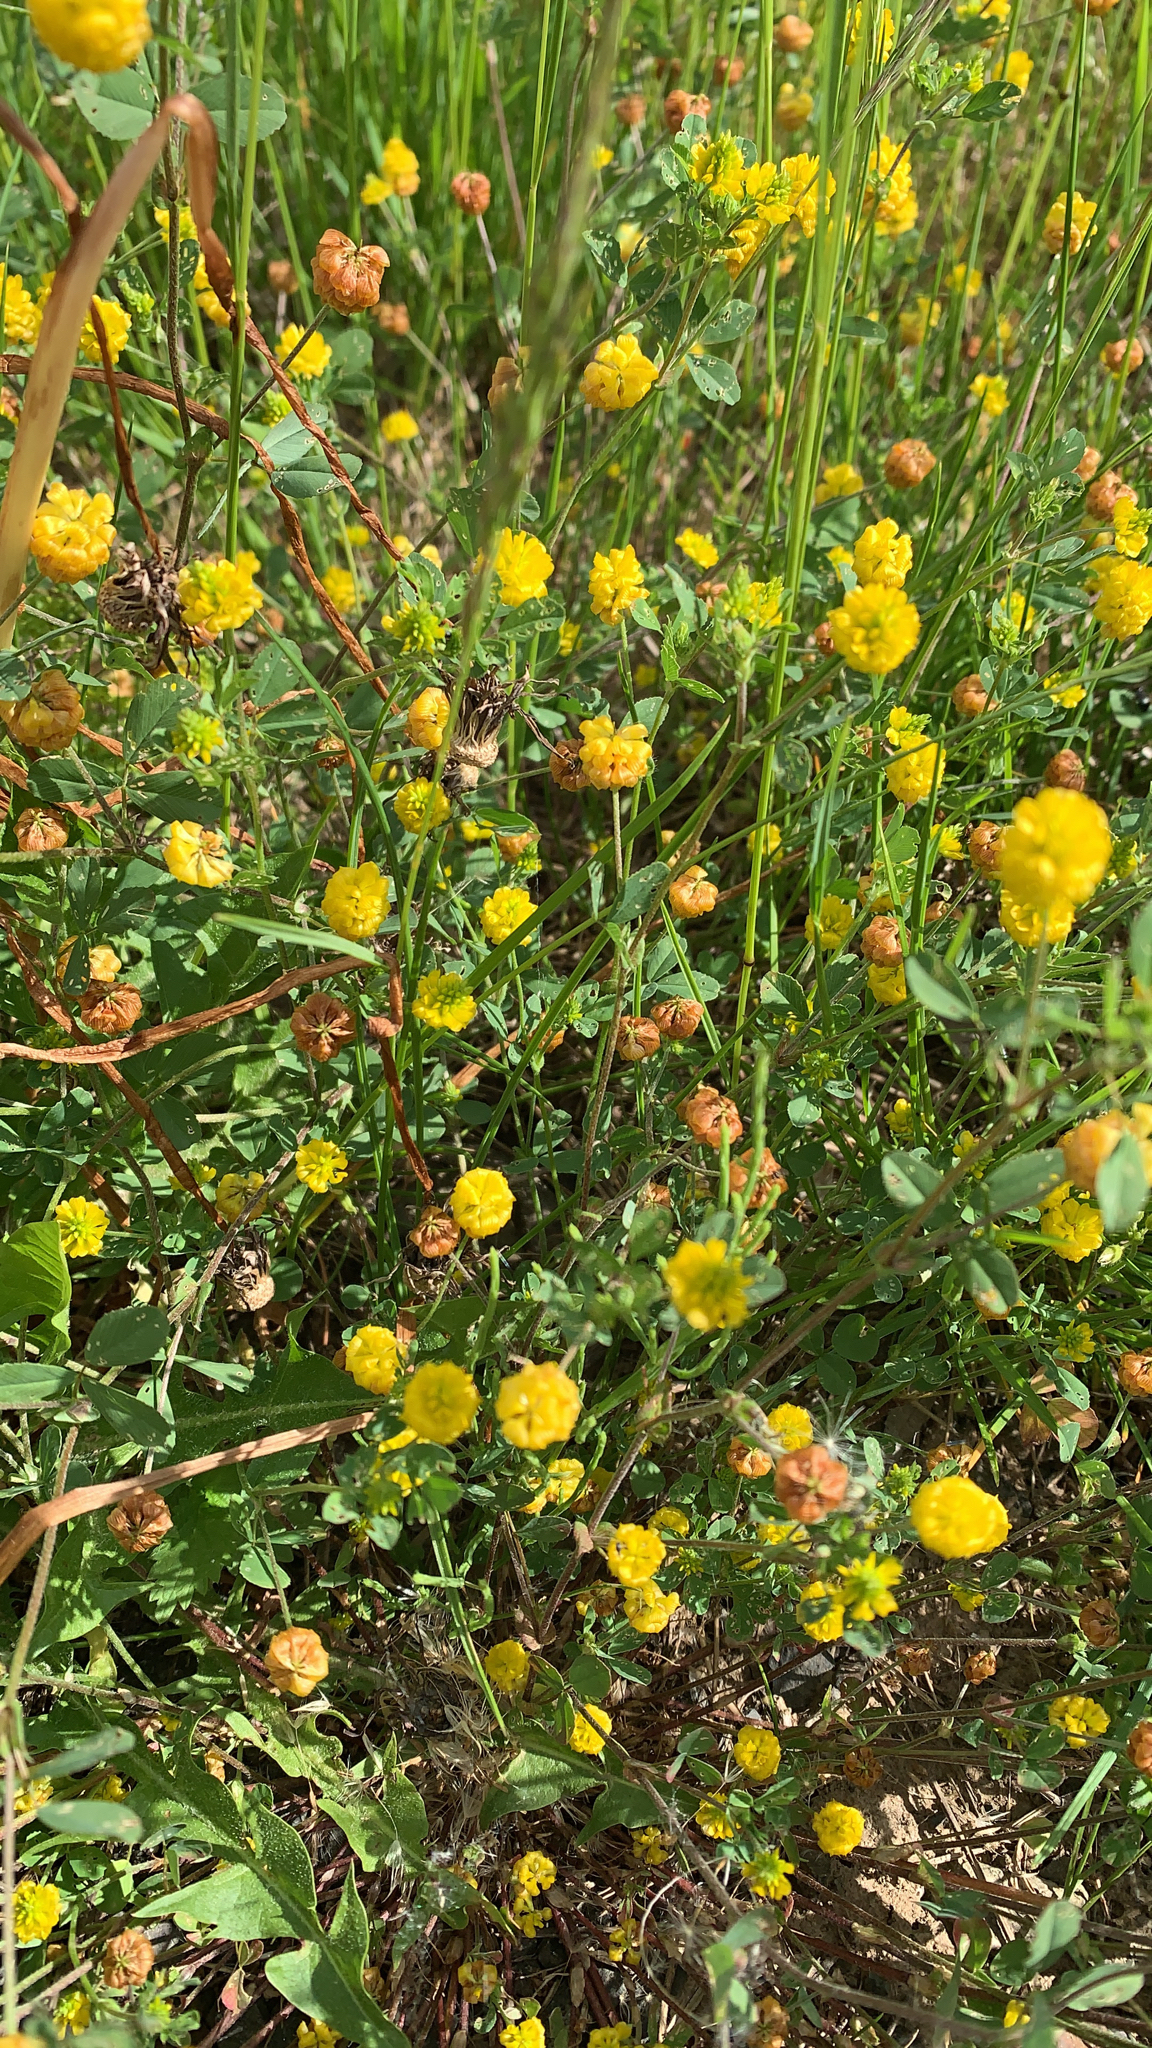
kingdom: Plantae
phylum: Tracheophyta
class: Magnoliopsida
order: Fabales
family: Fabaceae
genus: Trifolium
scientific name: Trifolium campestre
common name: Field clover
